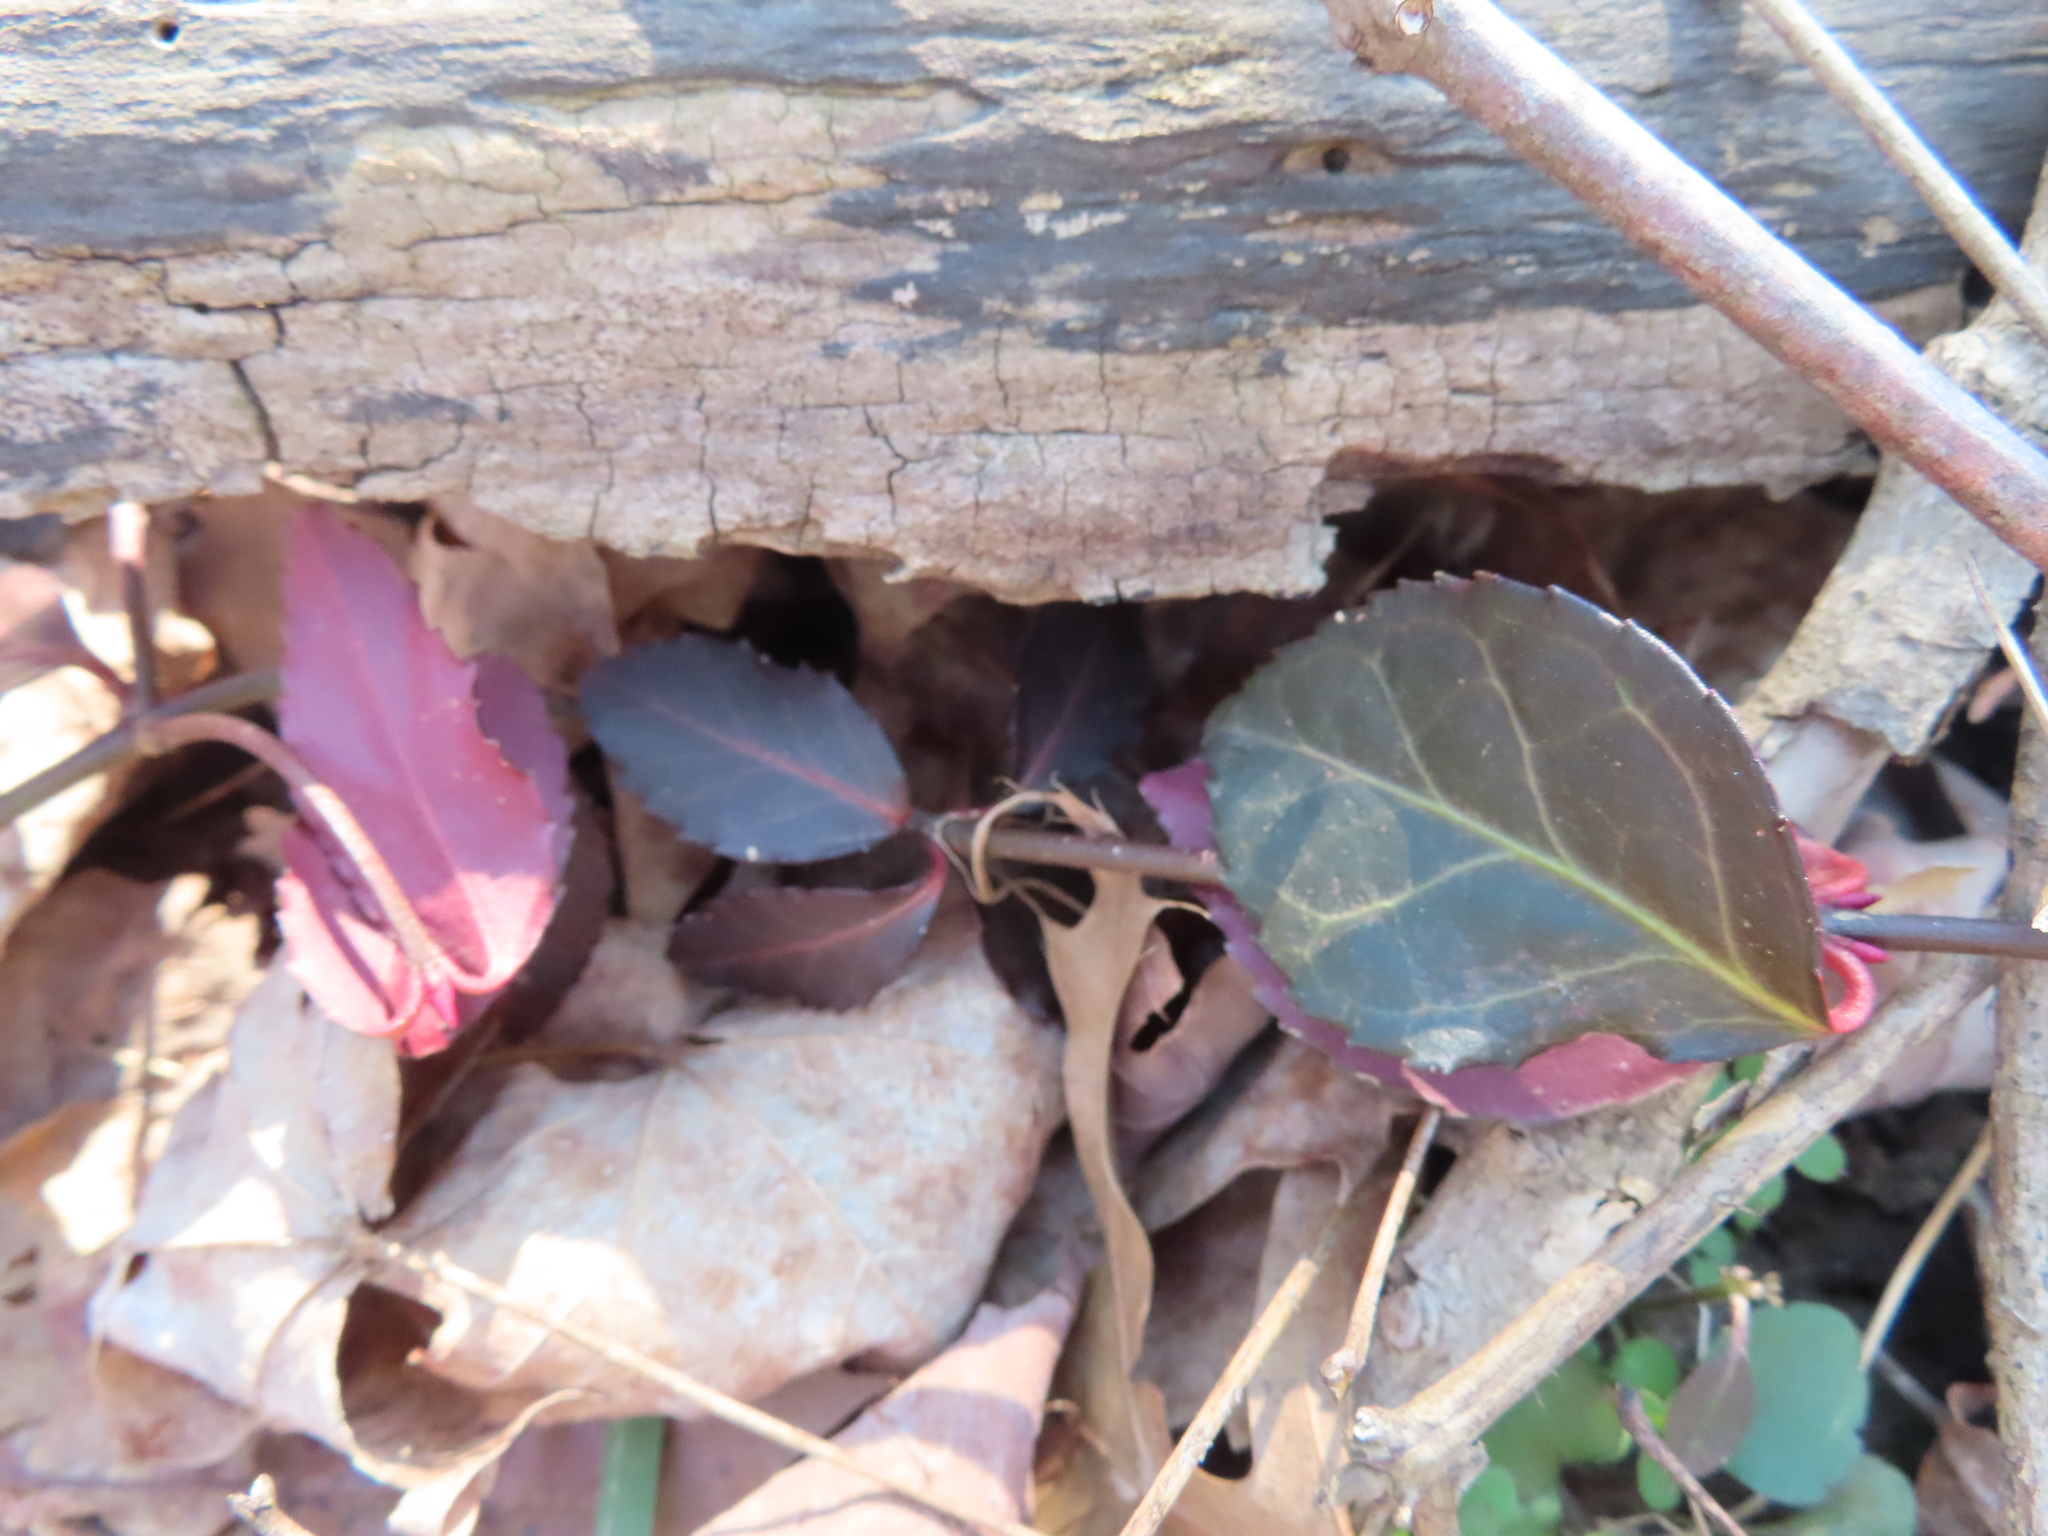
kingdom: Plantae
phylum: Tracheophyta
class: Magnoliopsida
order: Celastrales
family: Celastraceae
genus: Euonymus
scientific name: Euonymus fortunei
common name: Climbing euonymus
